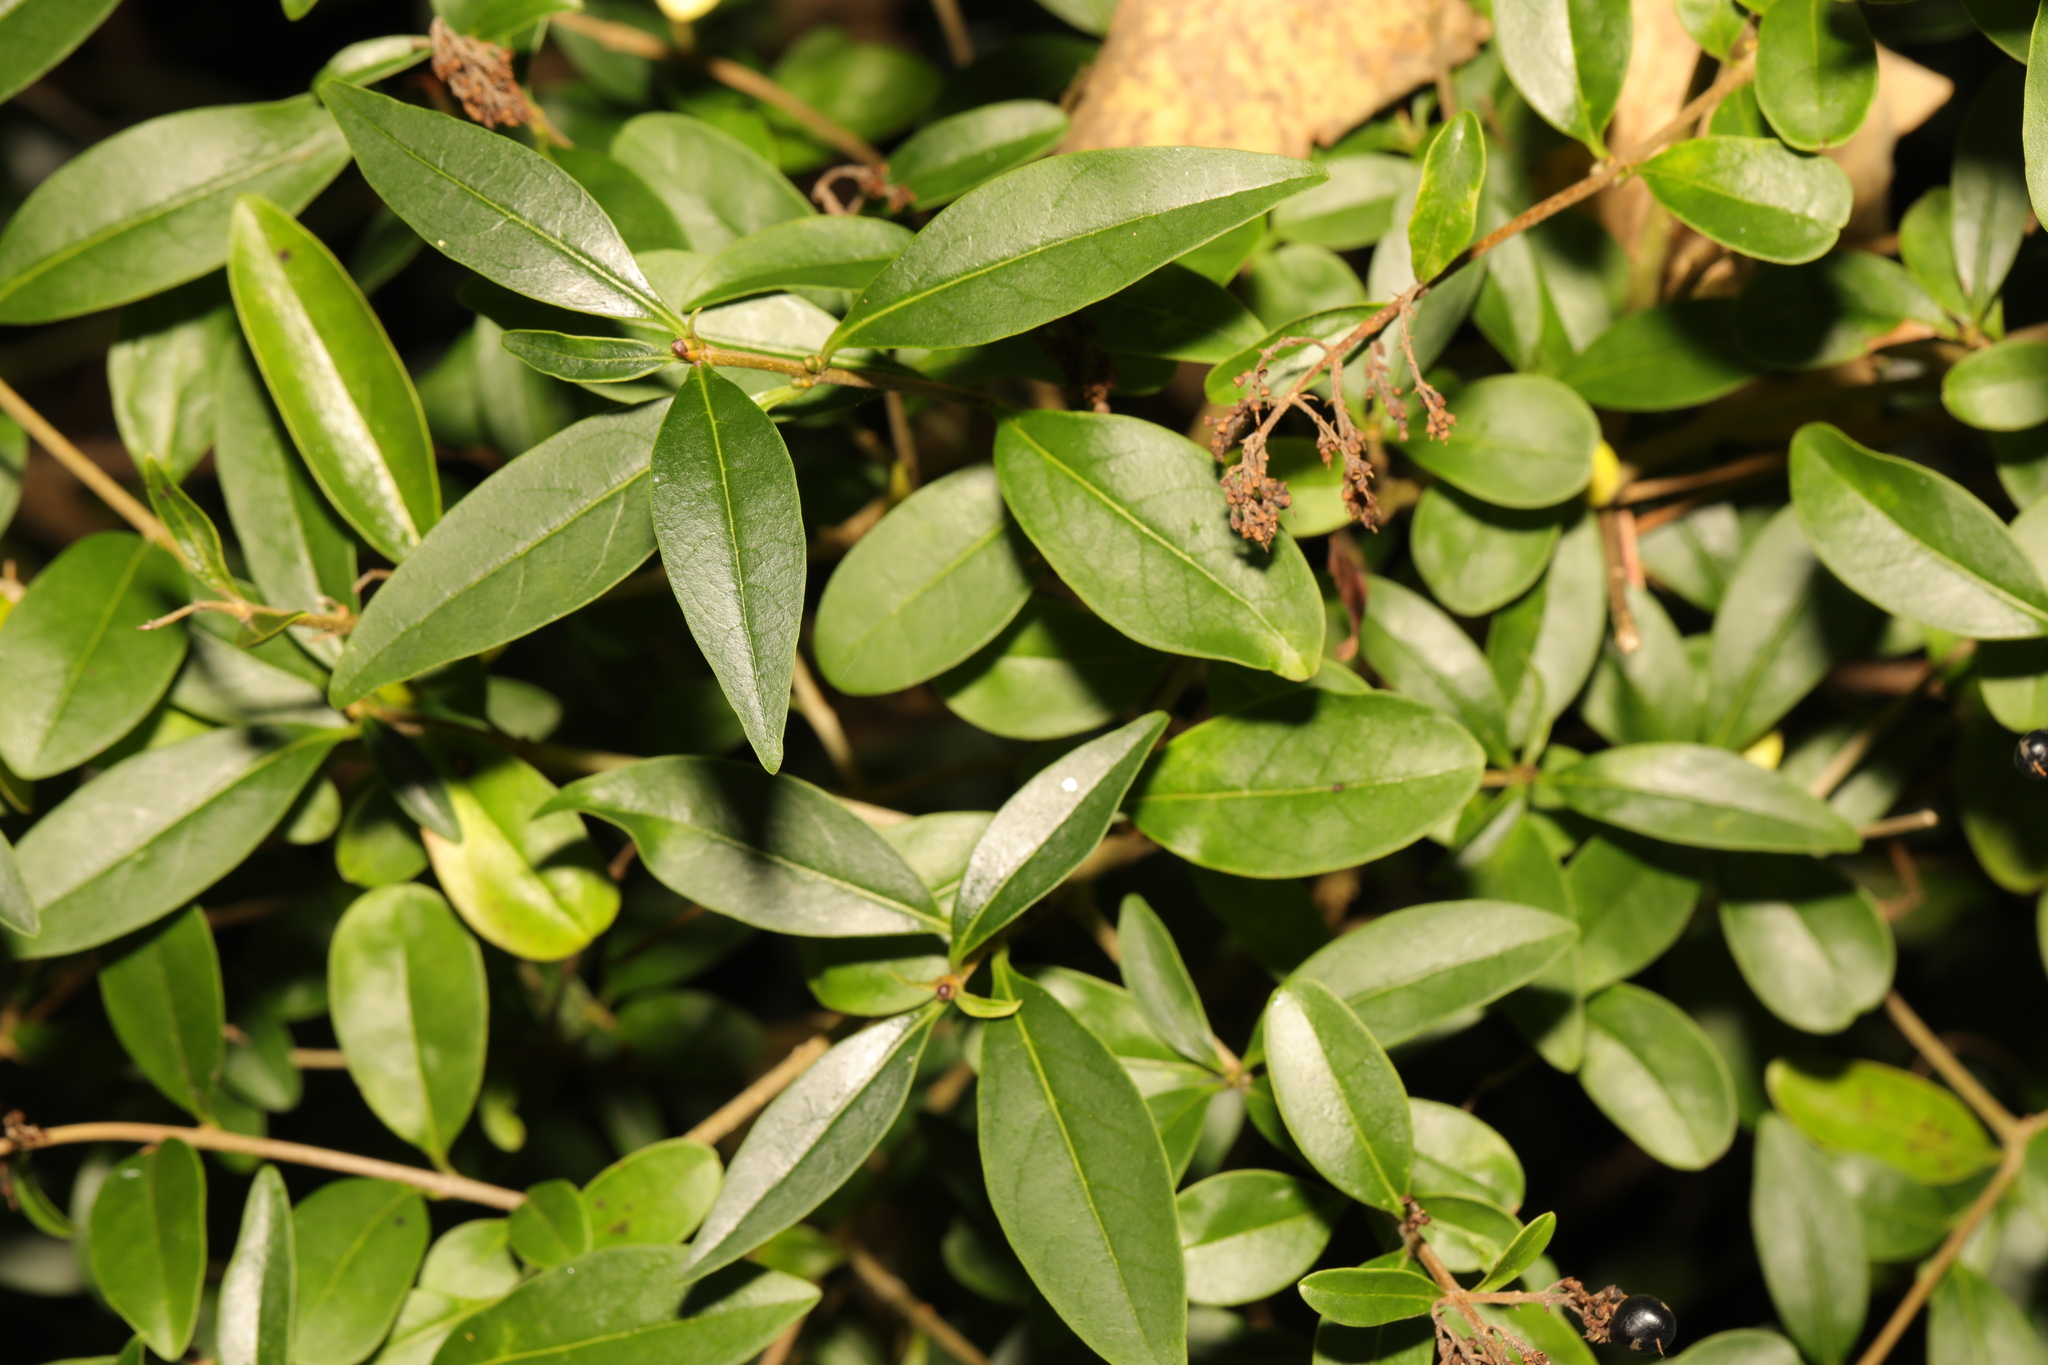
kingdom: Plantae
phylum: Tracheophyta
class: Magnoliopsida
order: Lamiales
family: Oleaceae
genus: Ligustrum
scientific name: Ligustrum vulgare
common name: Wild privet
